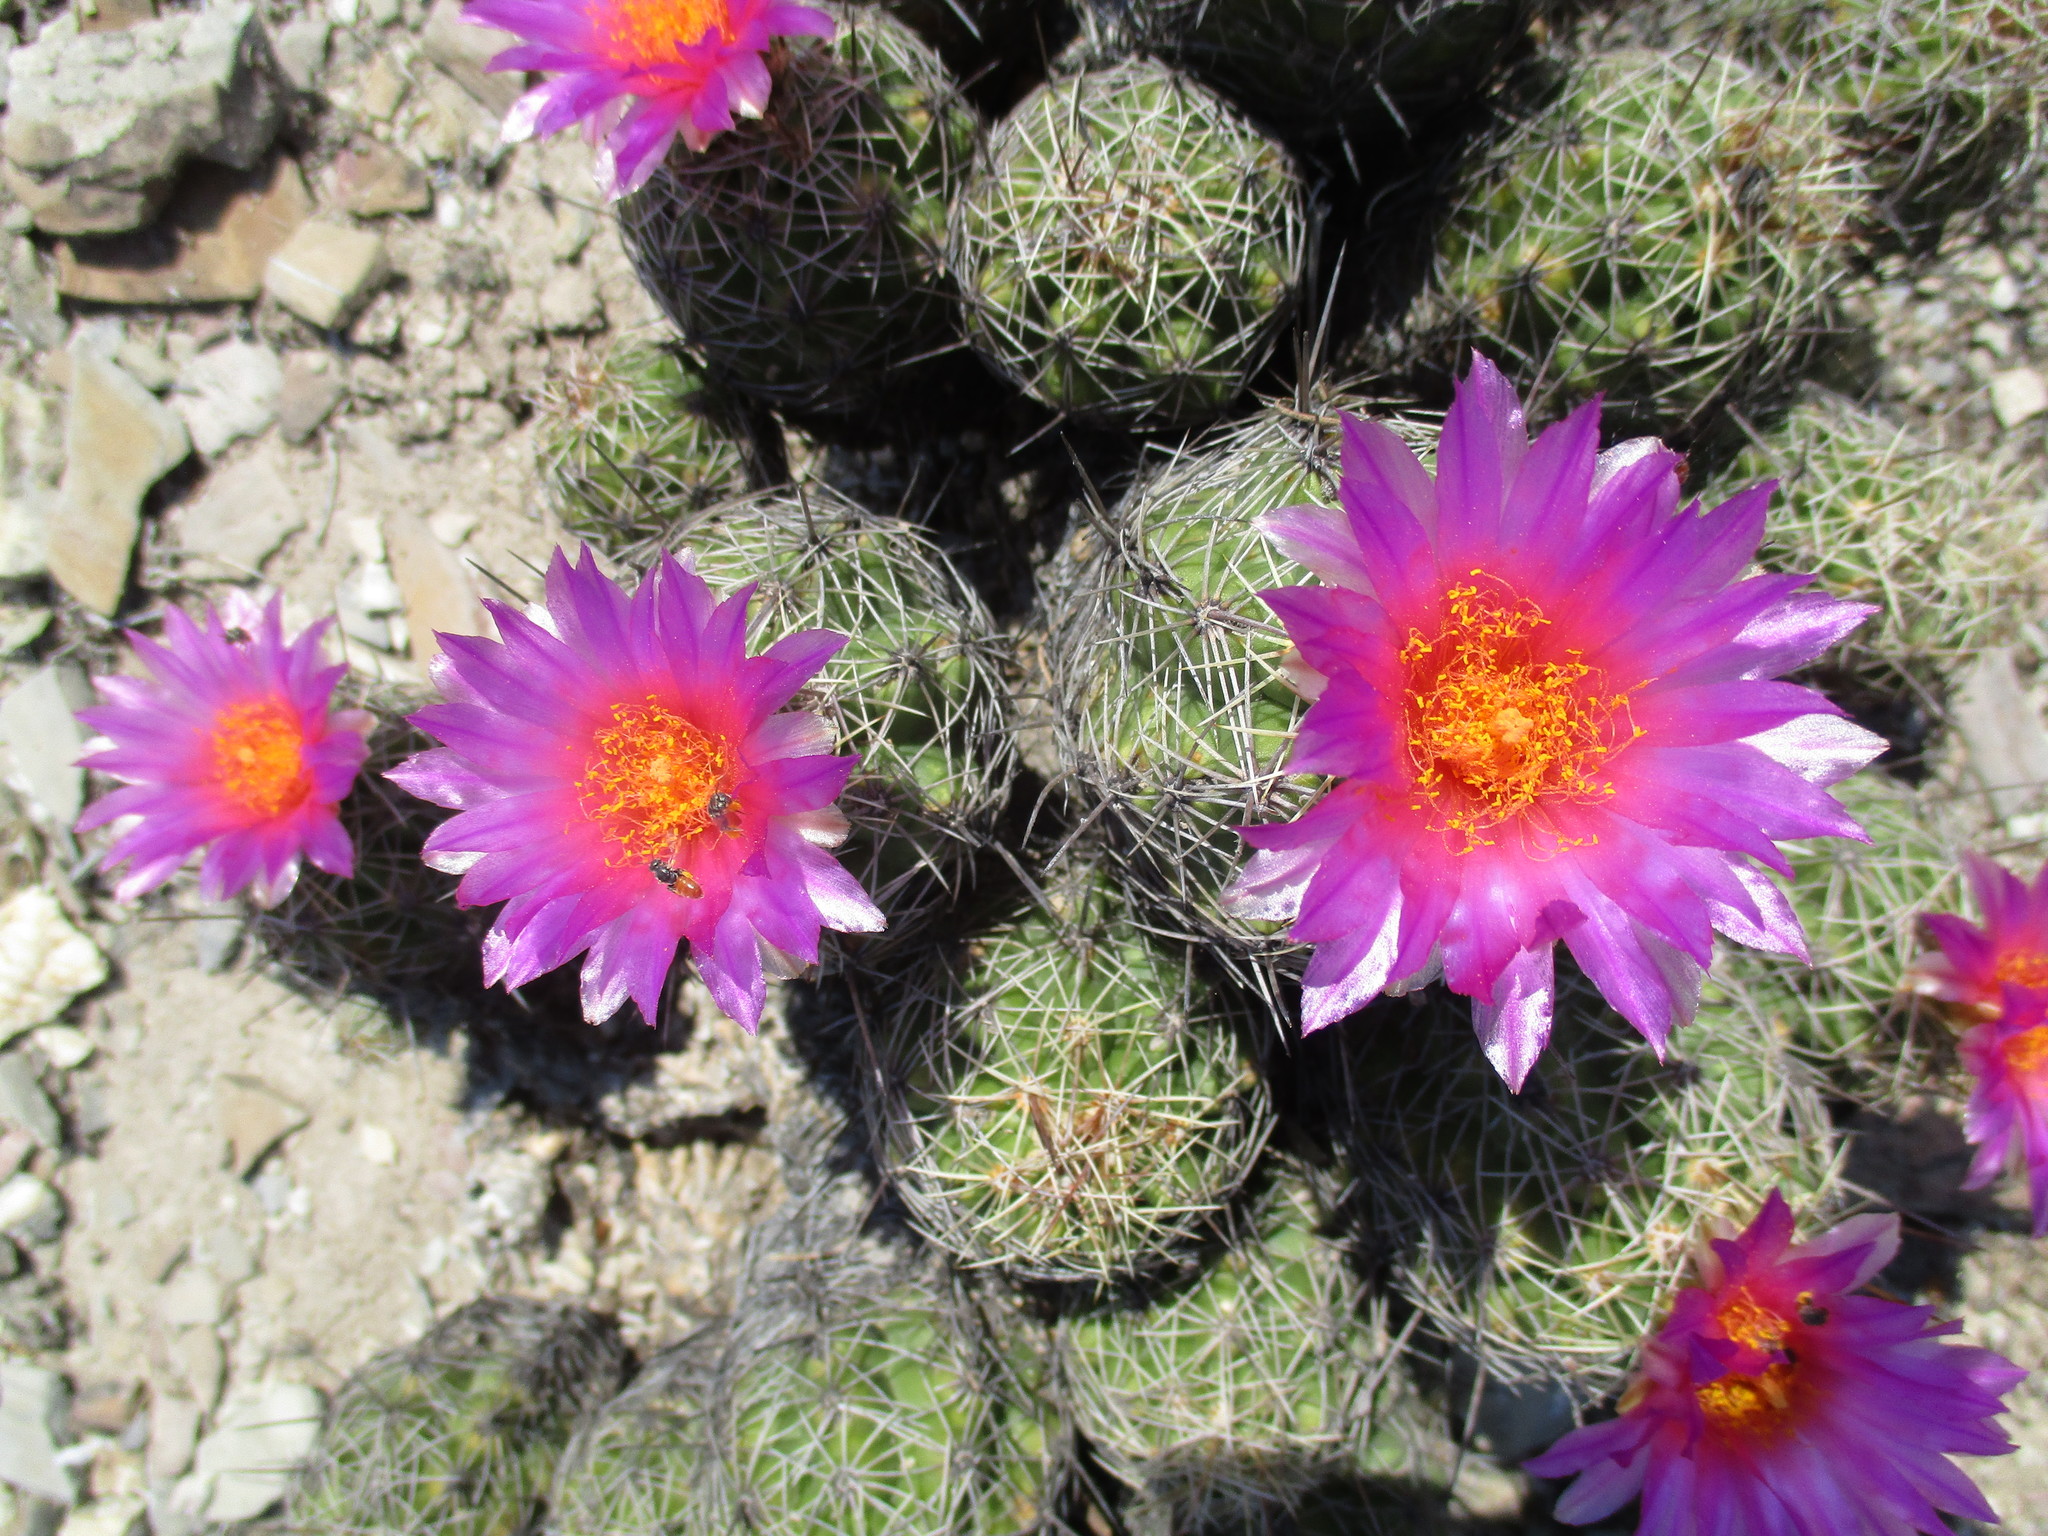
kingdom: Plantae
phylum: Tracheophyta
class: Magnoliopsida
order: Caryophyllales
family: Cactaceae
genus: Thelocactus
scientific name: Thelocactus leucacanthus
